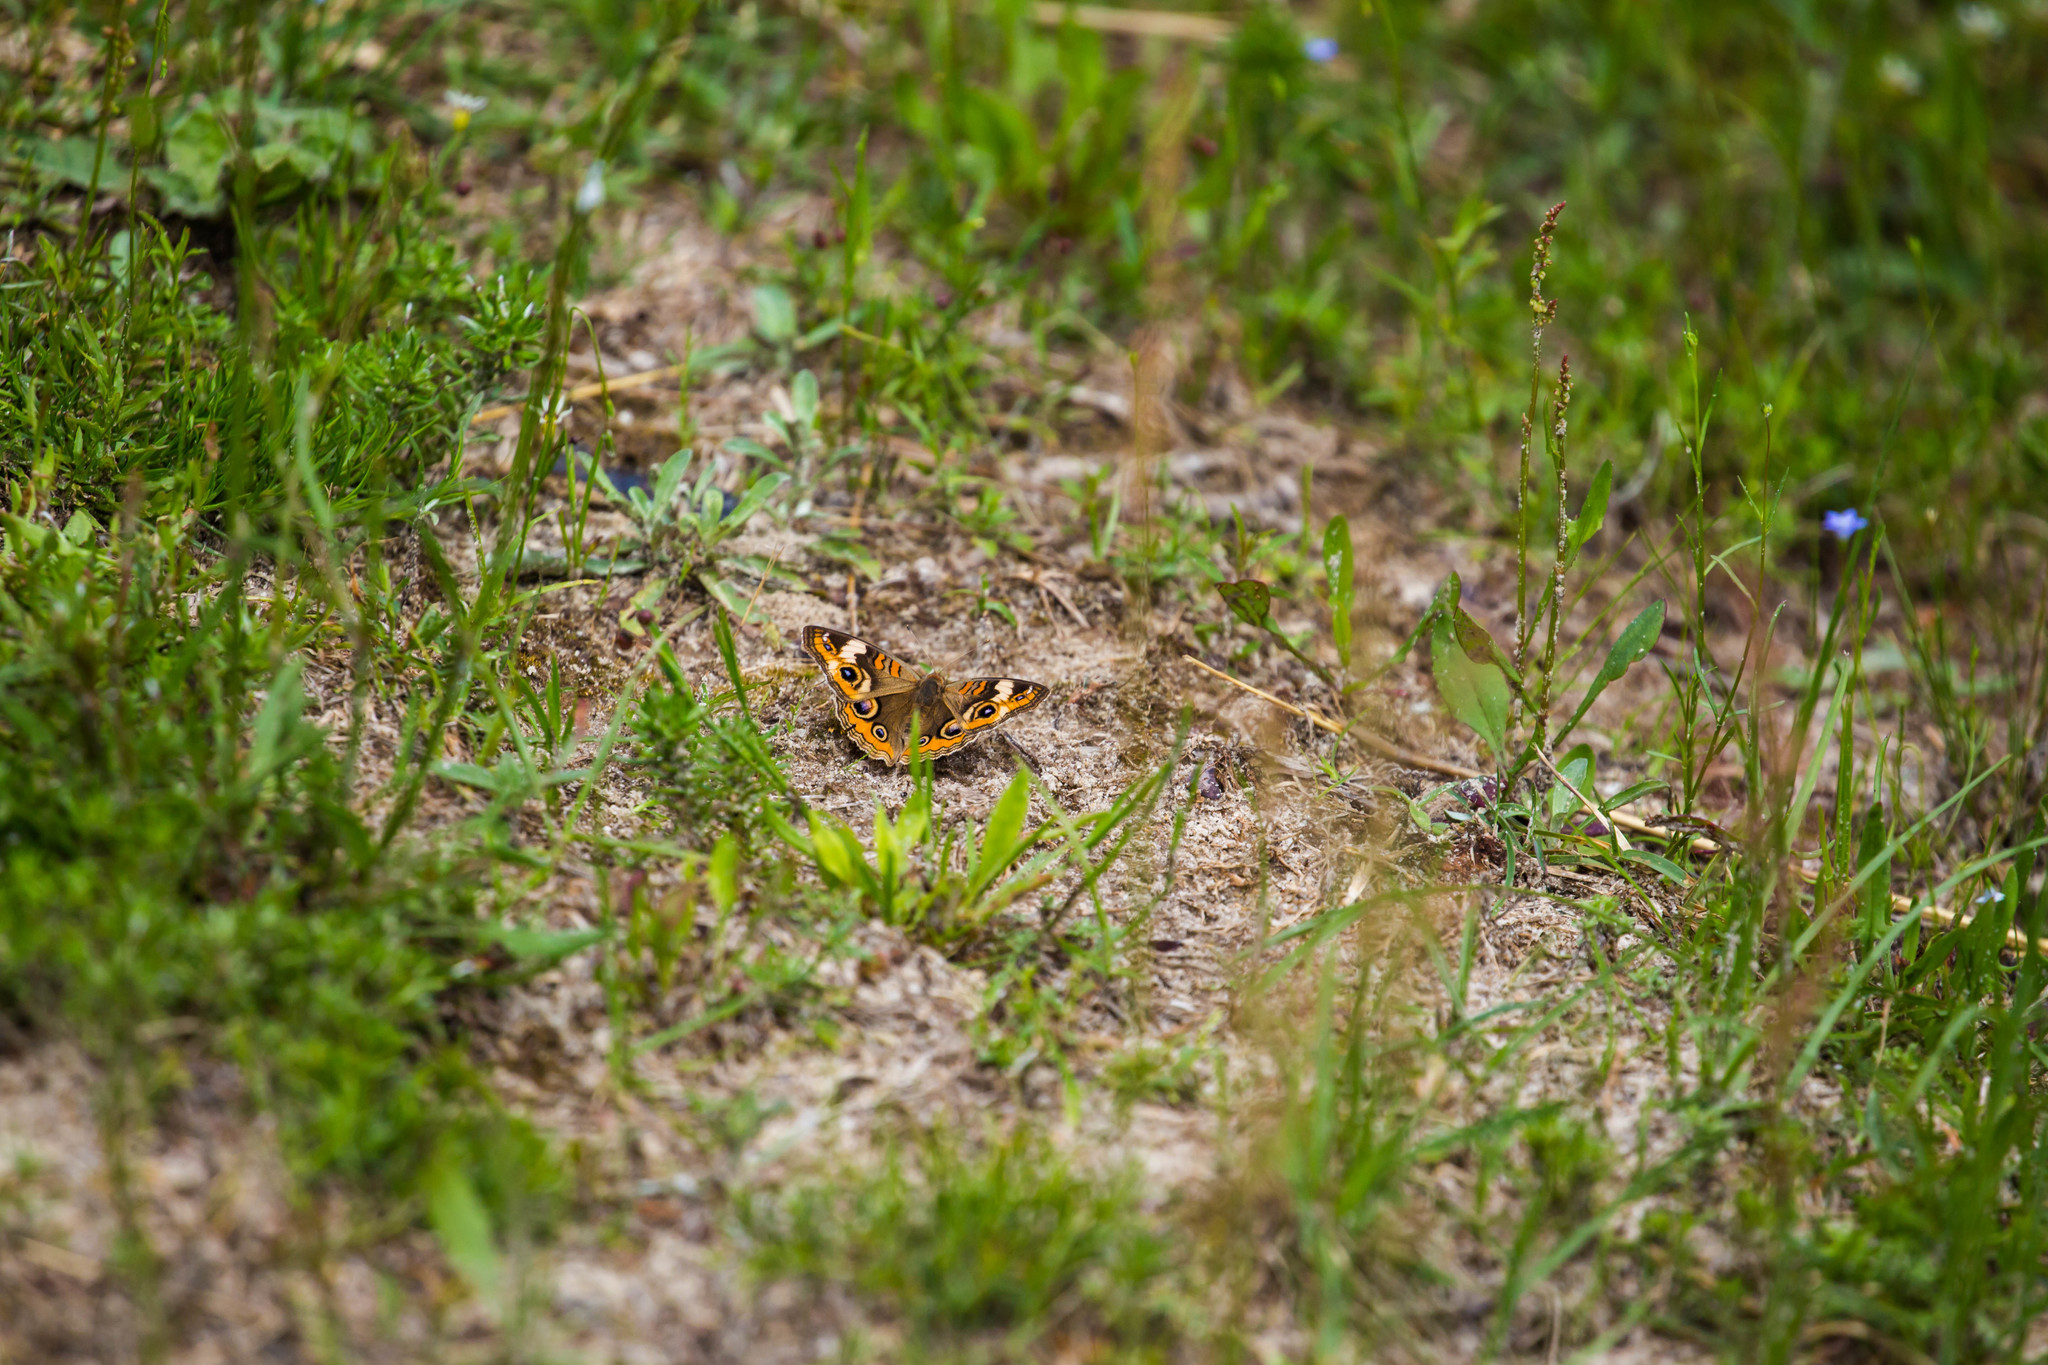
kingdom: Animalia
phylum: Arthropoda
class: Insecta
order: Lepidoptera
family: Nymphalidae
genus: Junonia
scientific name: Junonia coenia
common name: Common buckeye
